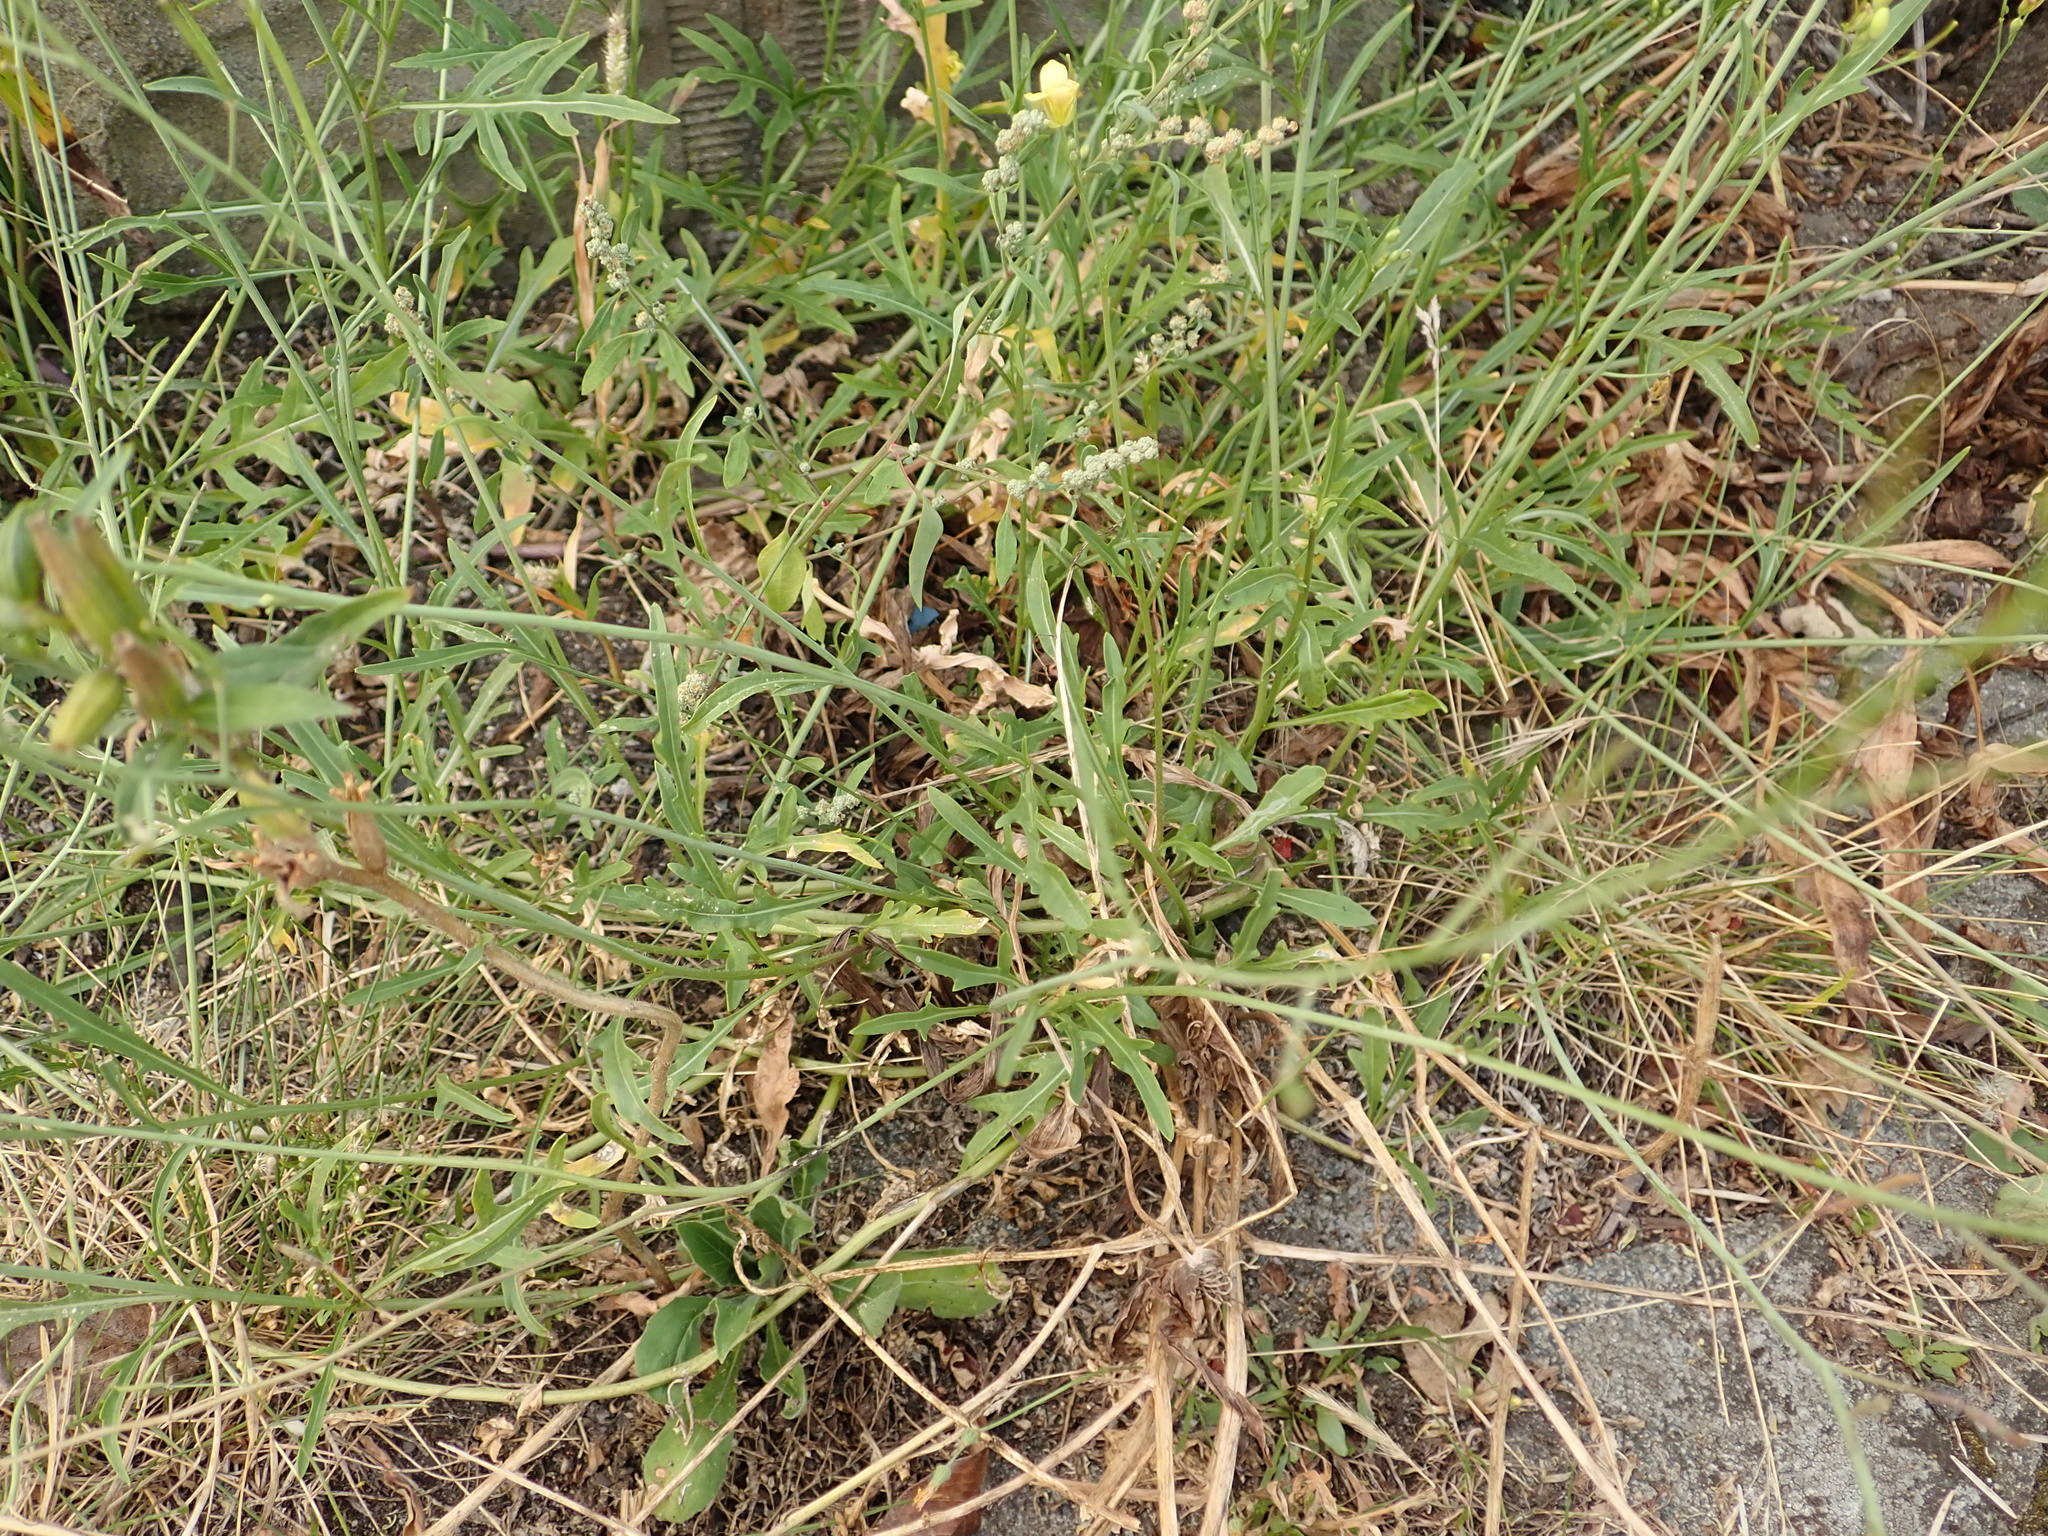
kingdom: Plantae
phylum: Tracheophyta
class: Magnoliopsida
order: Brassicales
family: Brassicaceae
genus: Diplotaxis
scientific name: Diplotaxis tenuifolia
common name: Perennial wall-rocket
